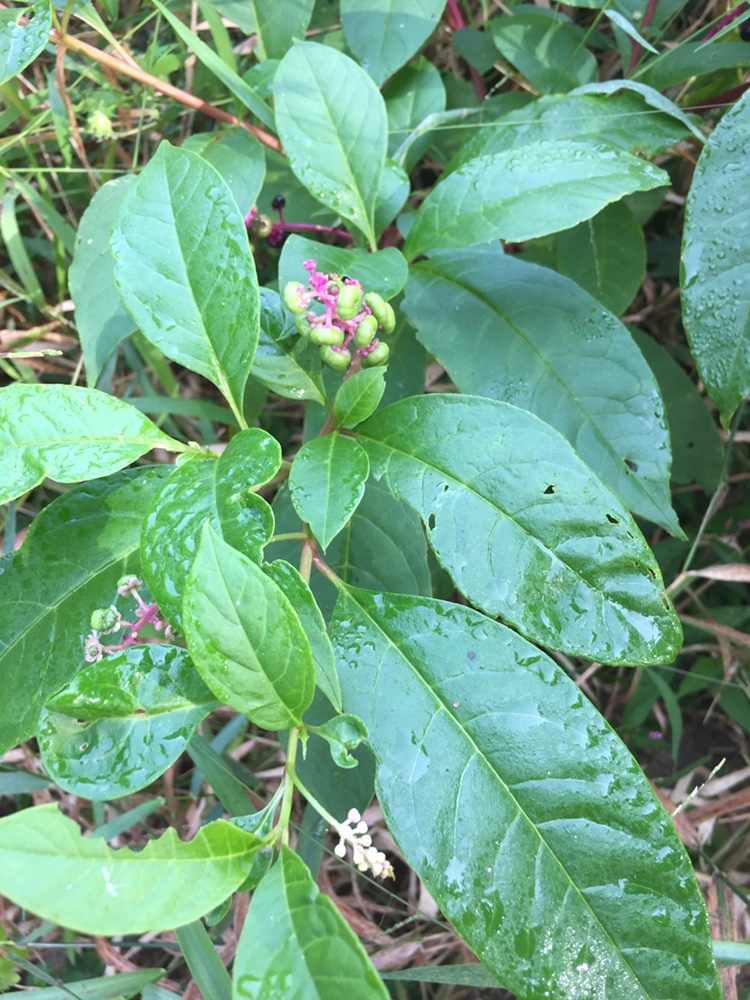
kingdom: Plantae
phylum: Tracheophyta
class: Magnoliopsida
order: Caryophyllales
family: Phytolaccaceae
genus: Phytolacca
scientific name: Phytolacca americana
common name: American pokeweed
